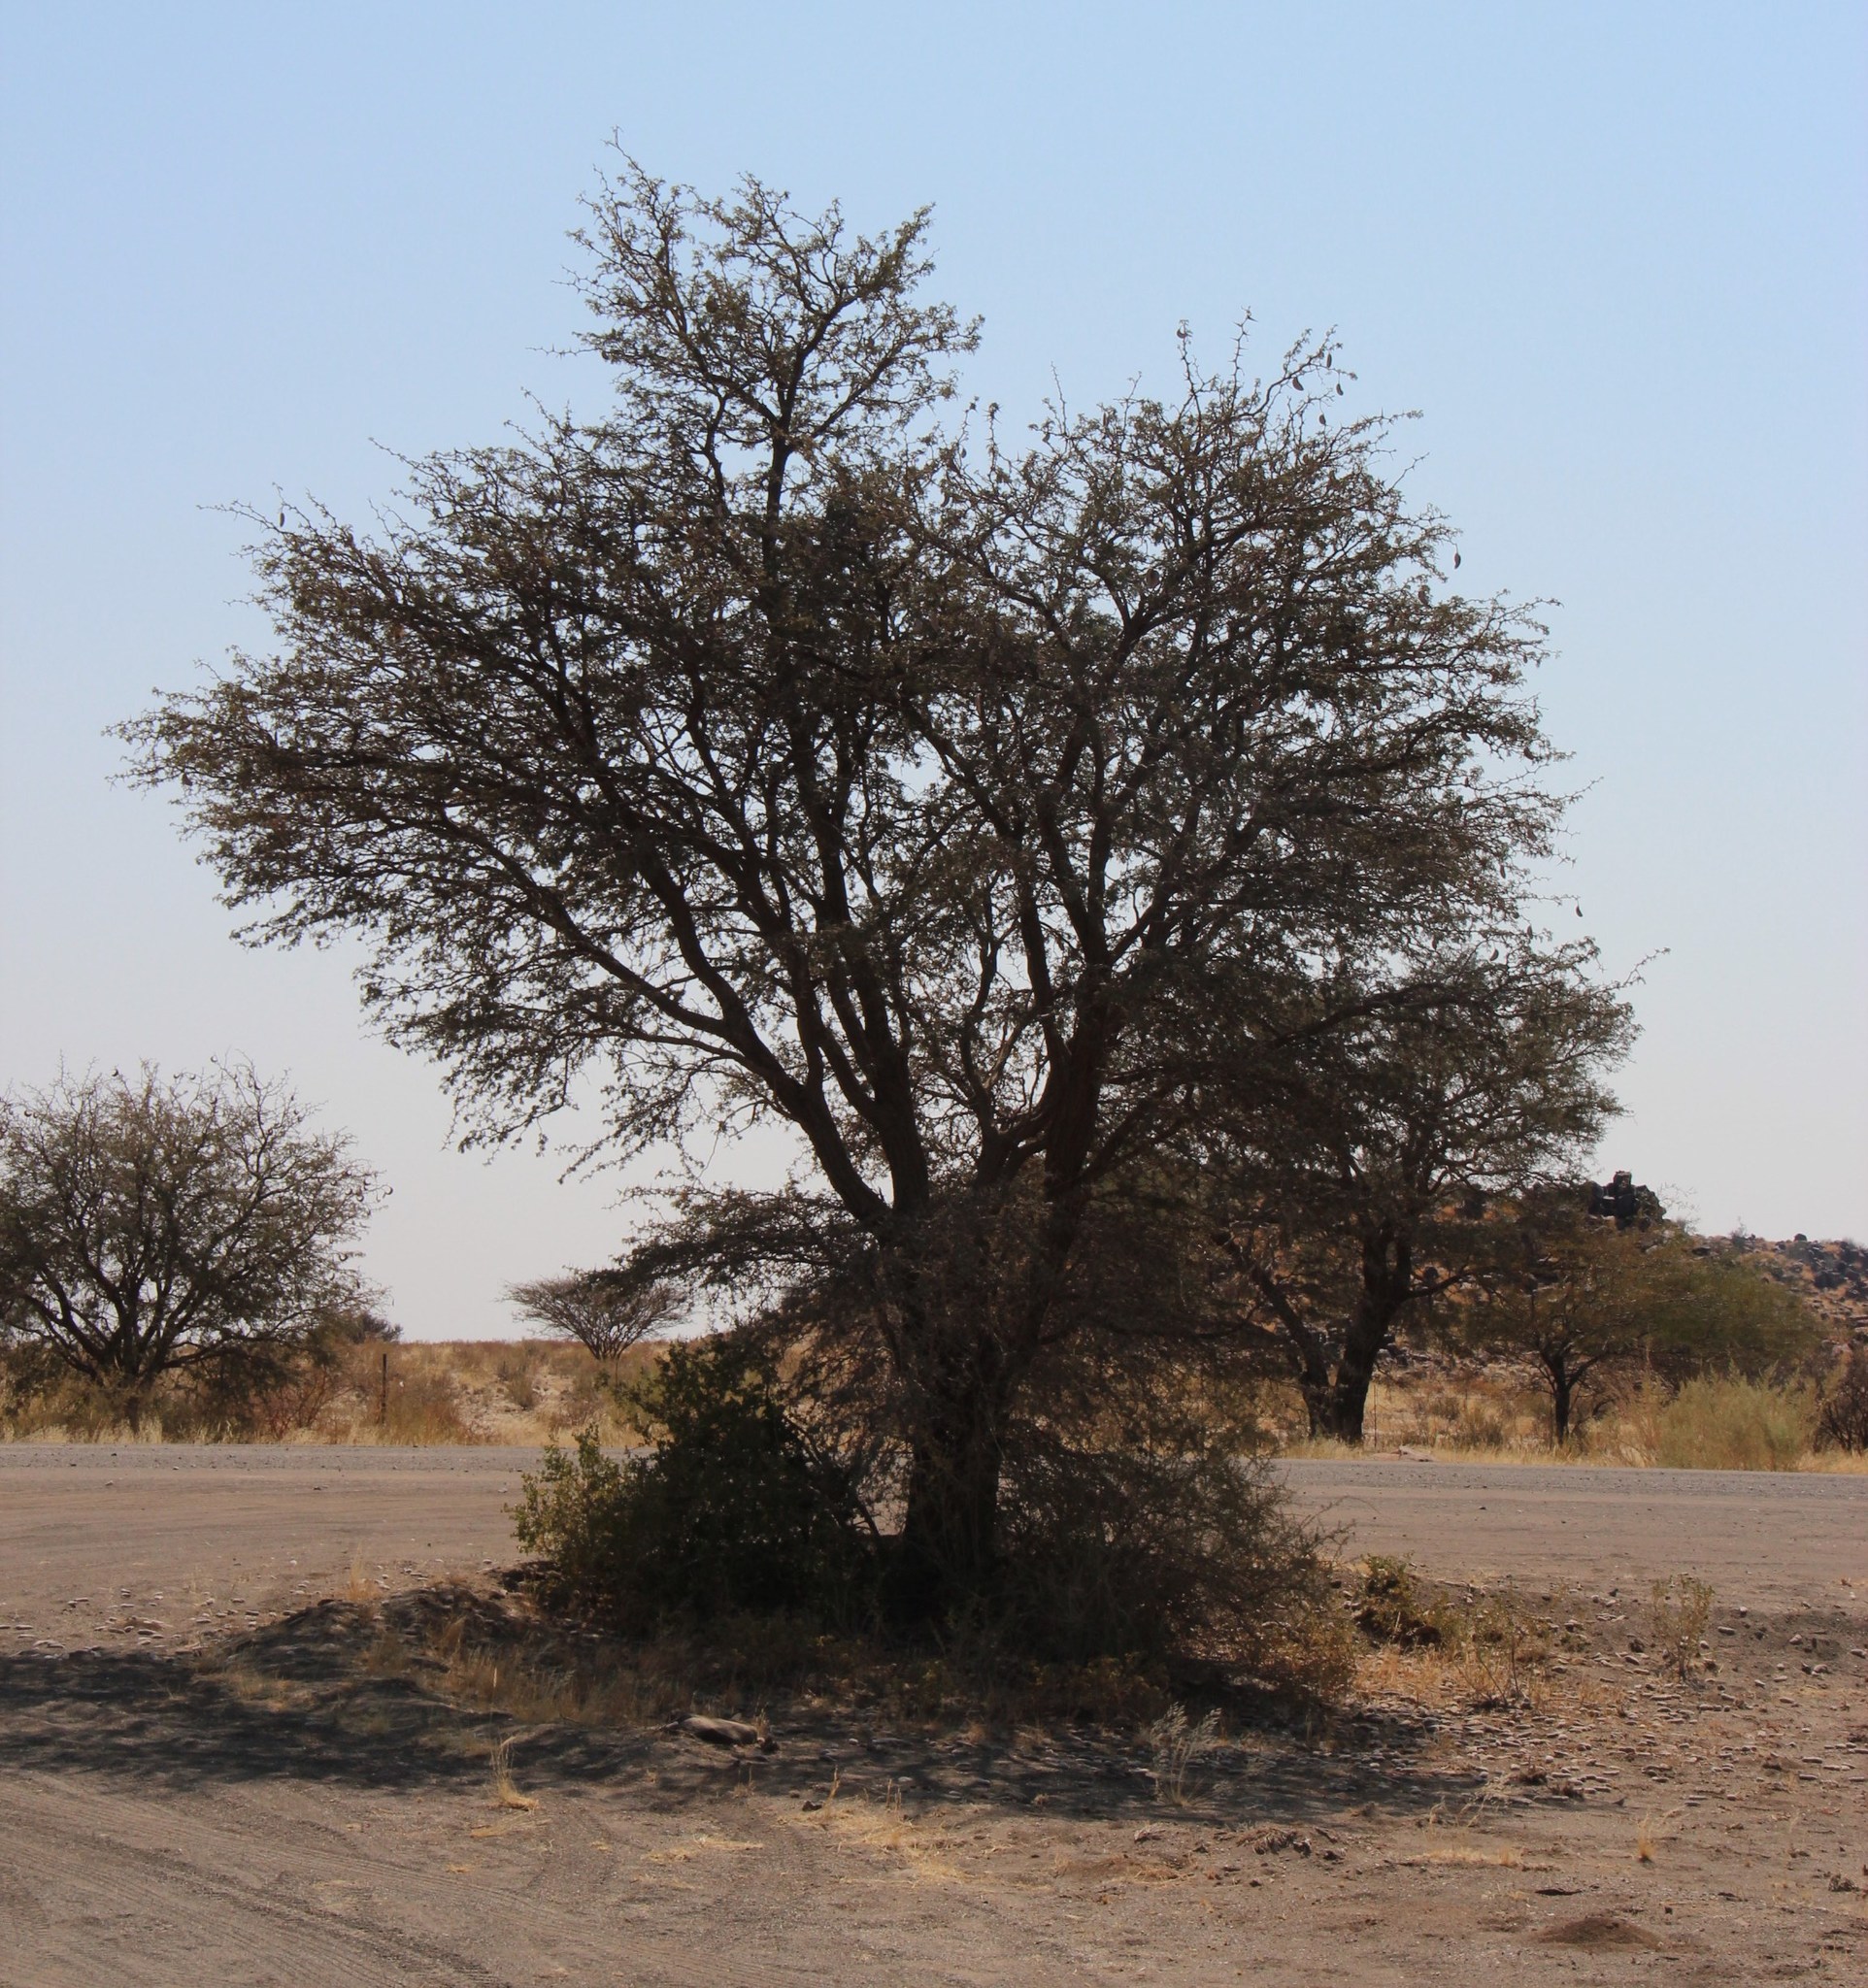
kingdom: Plantae
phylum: Tracheophyta
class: Magnoliopsida
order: Fabales
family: Fabaceae
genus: Vachellia
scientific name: Vachellia erioloba
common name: Camel thorn
